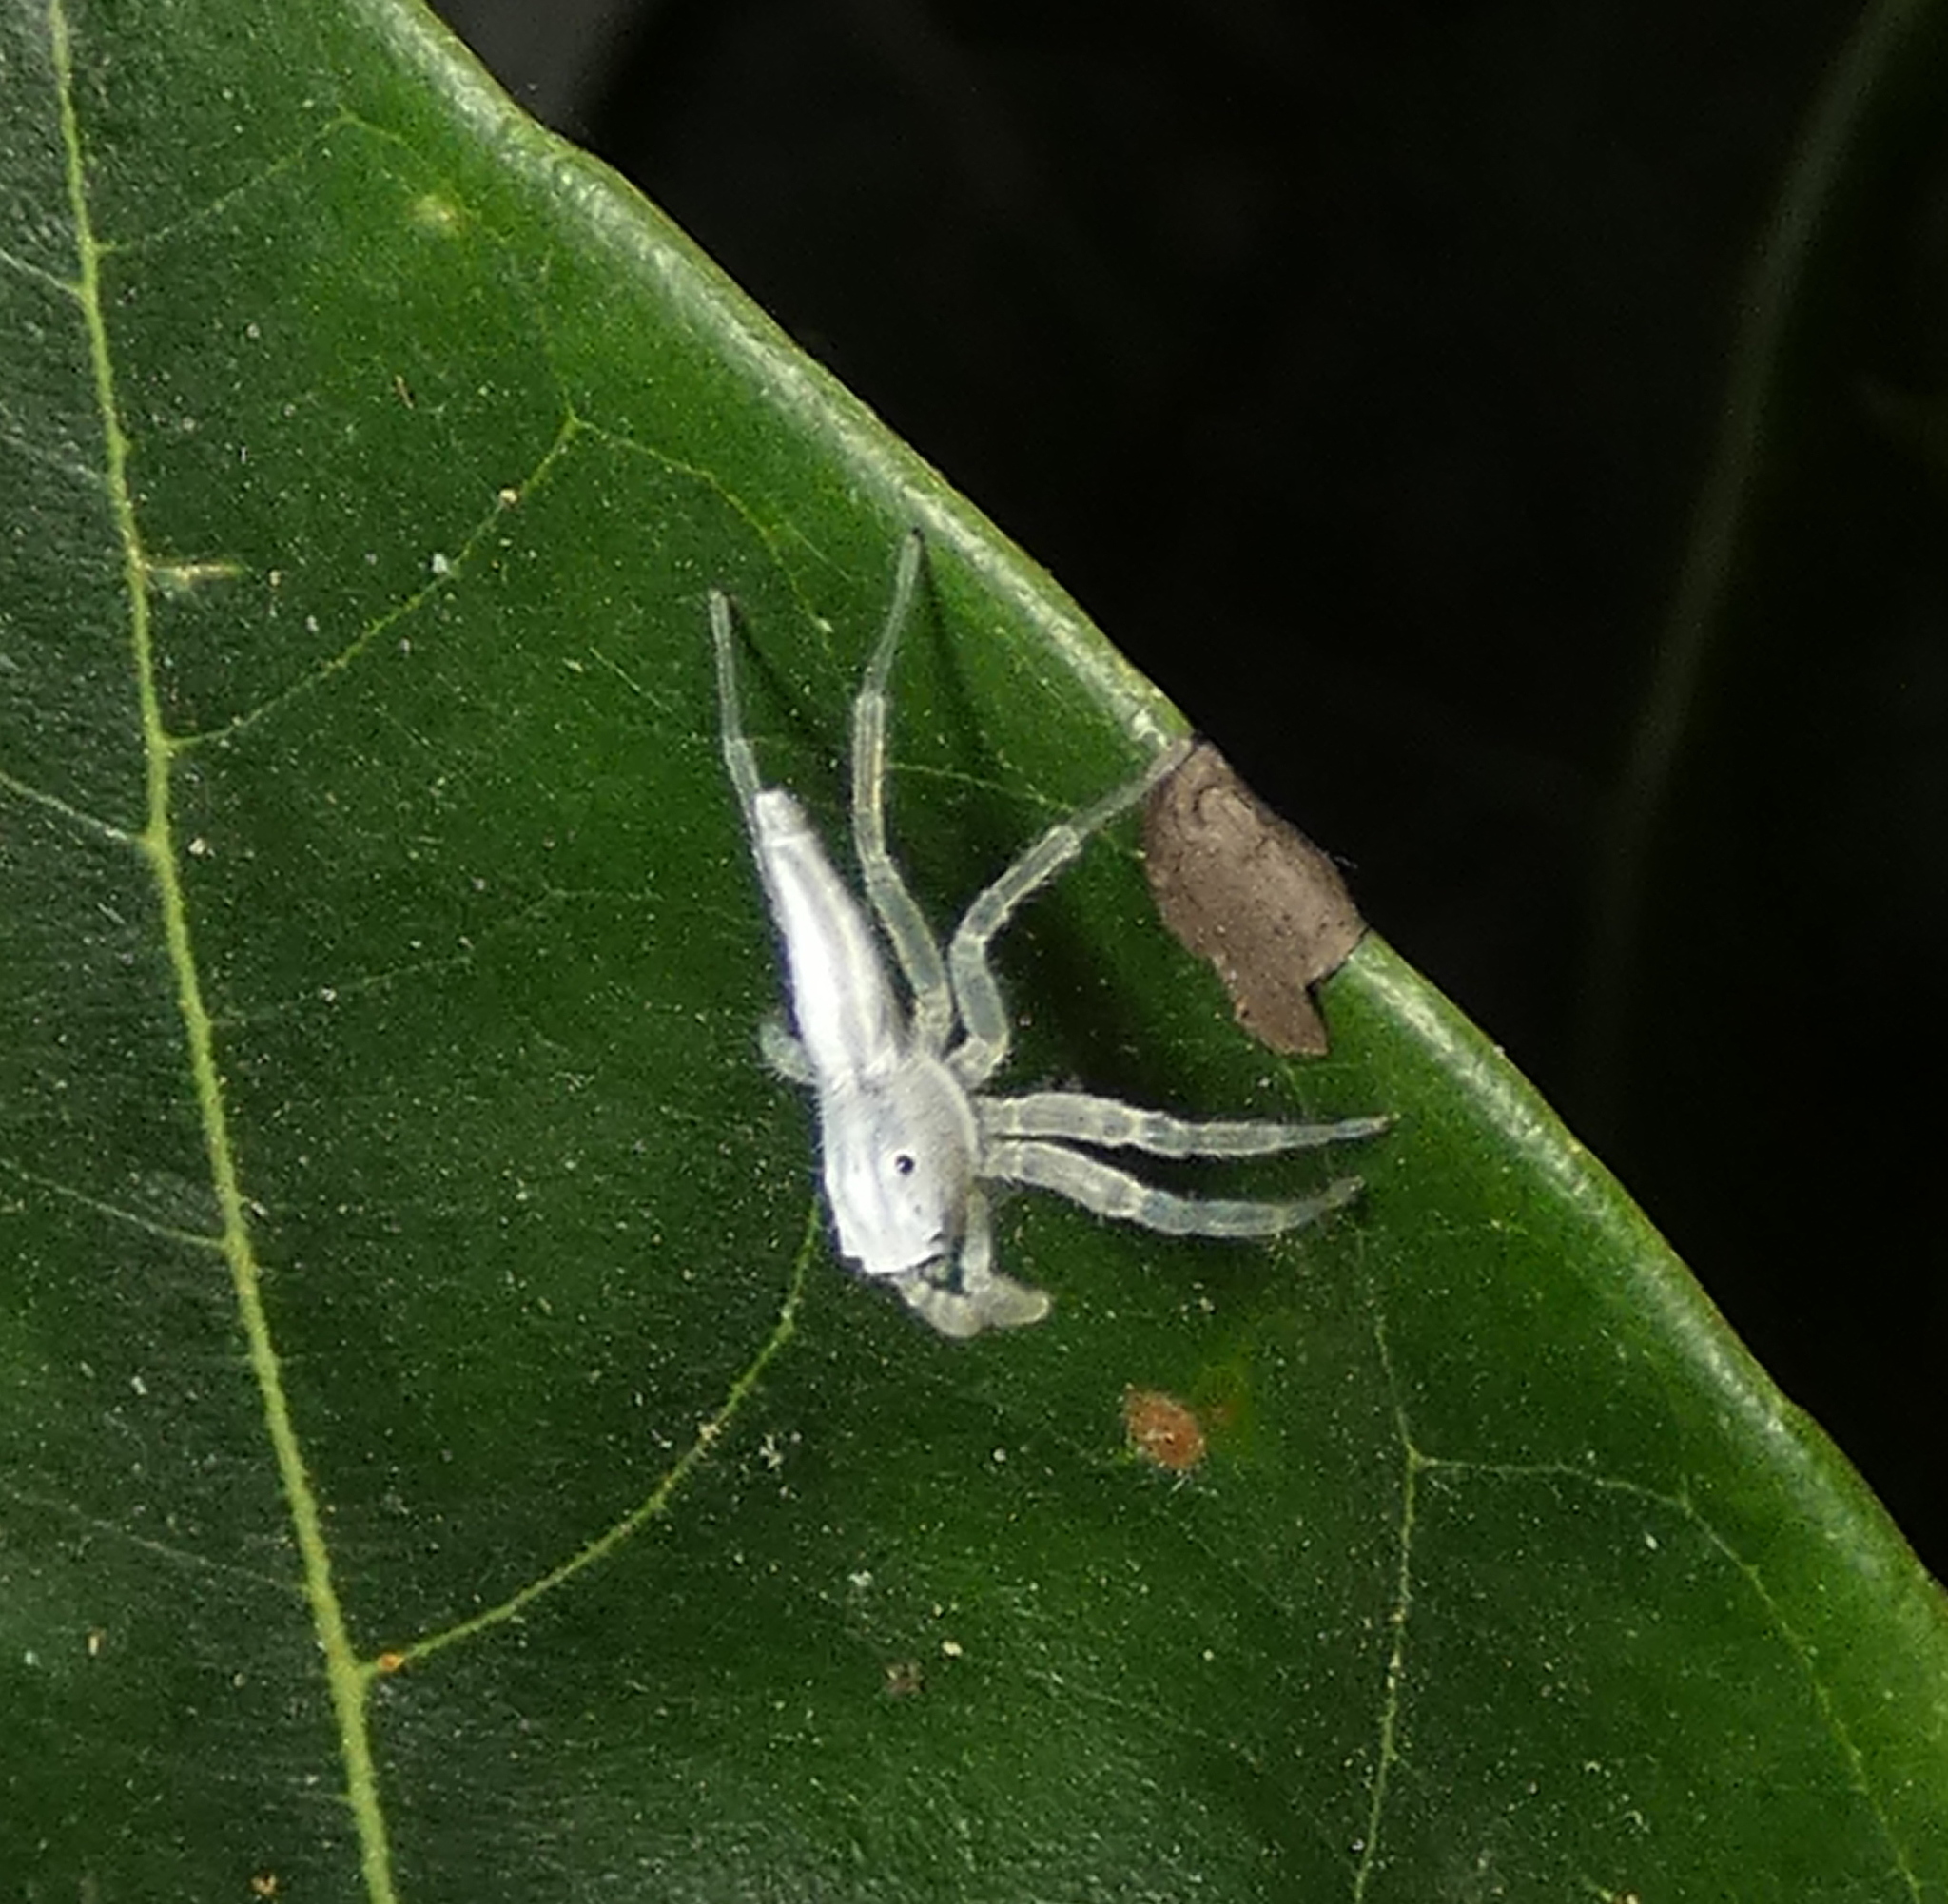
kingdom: Animalia
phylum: Arthropoda
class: Arachnida
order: Araneae
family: Salticidae
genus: Chira
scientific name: Chira trivittata
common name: Jumping spiders
